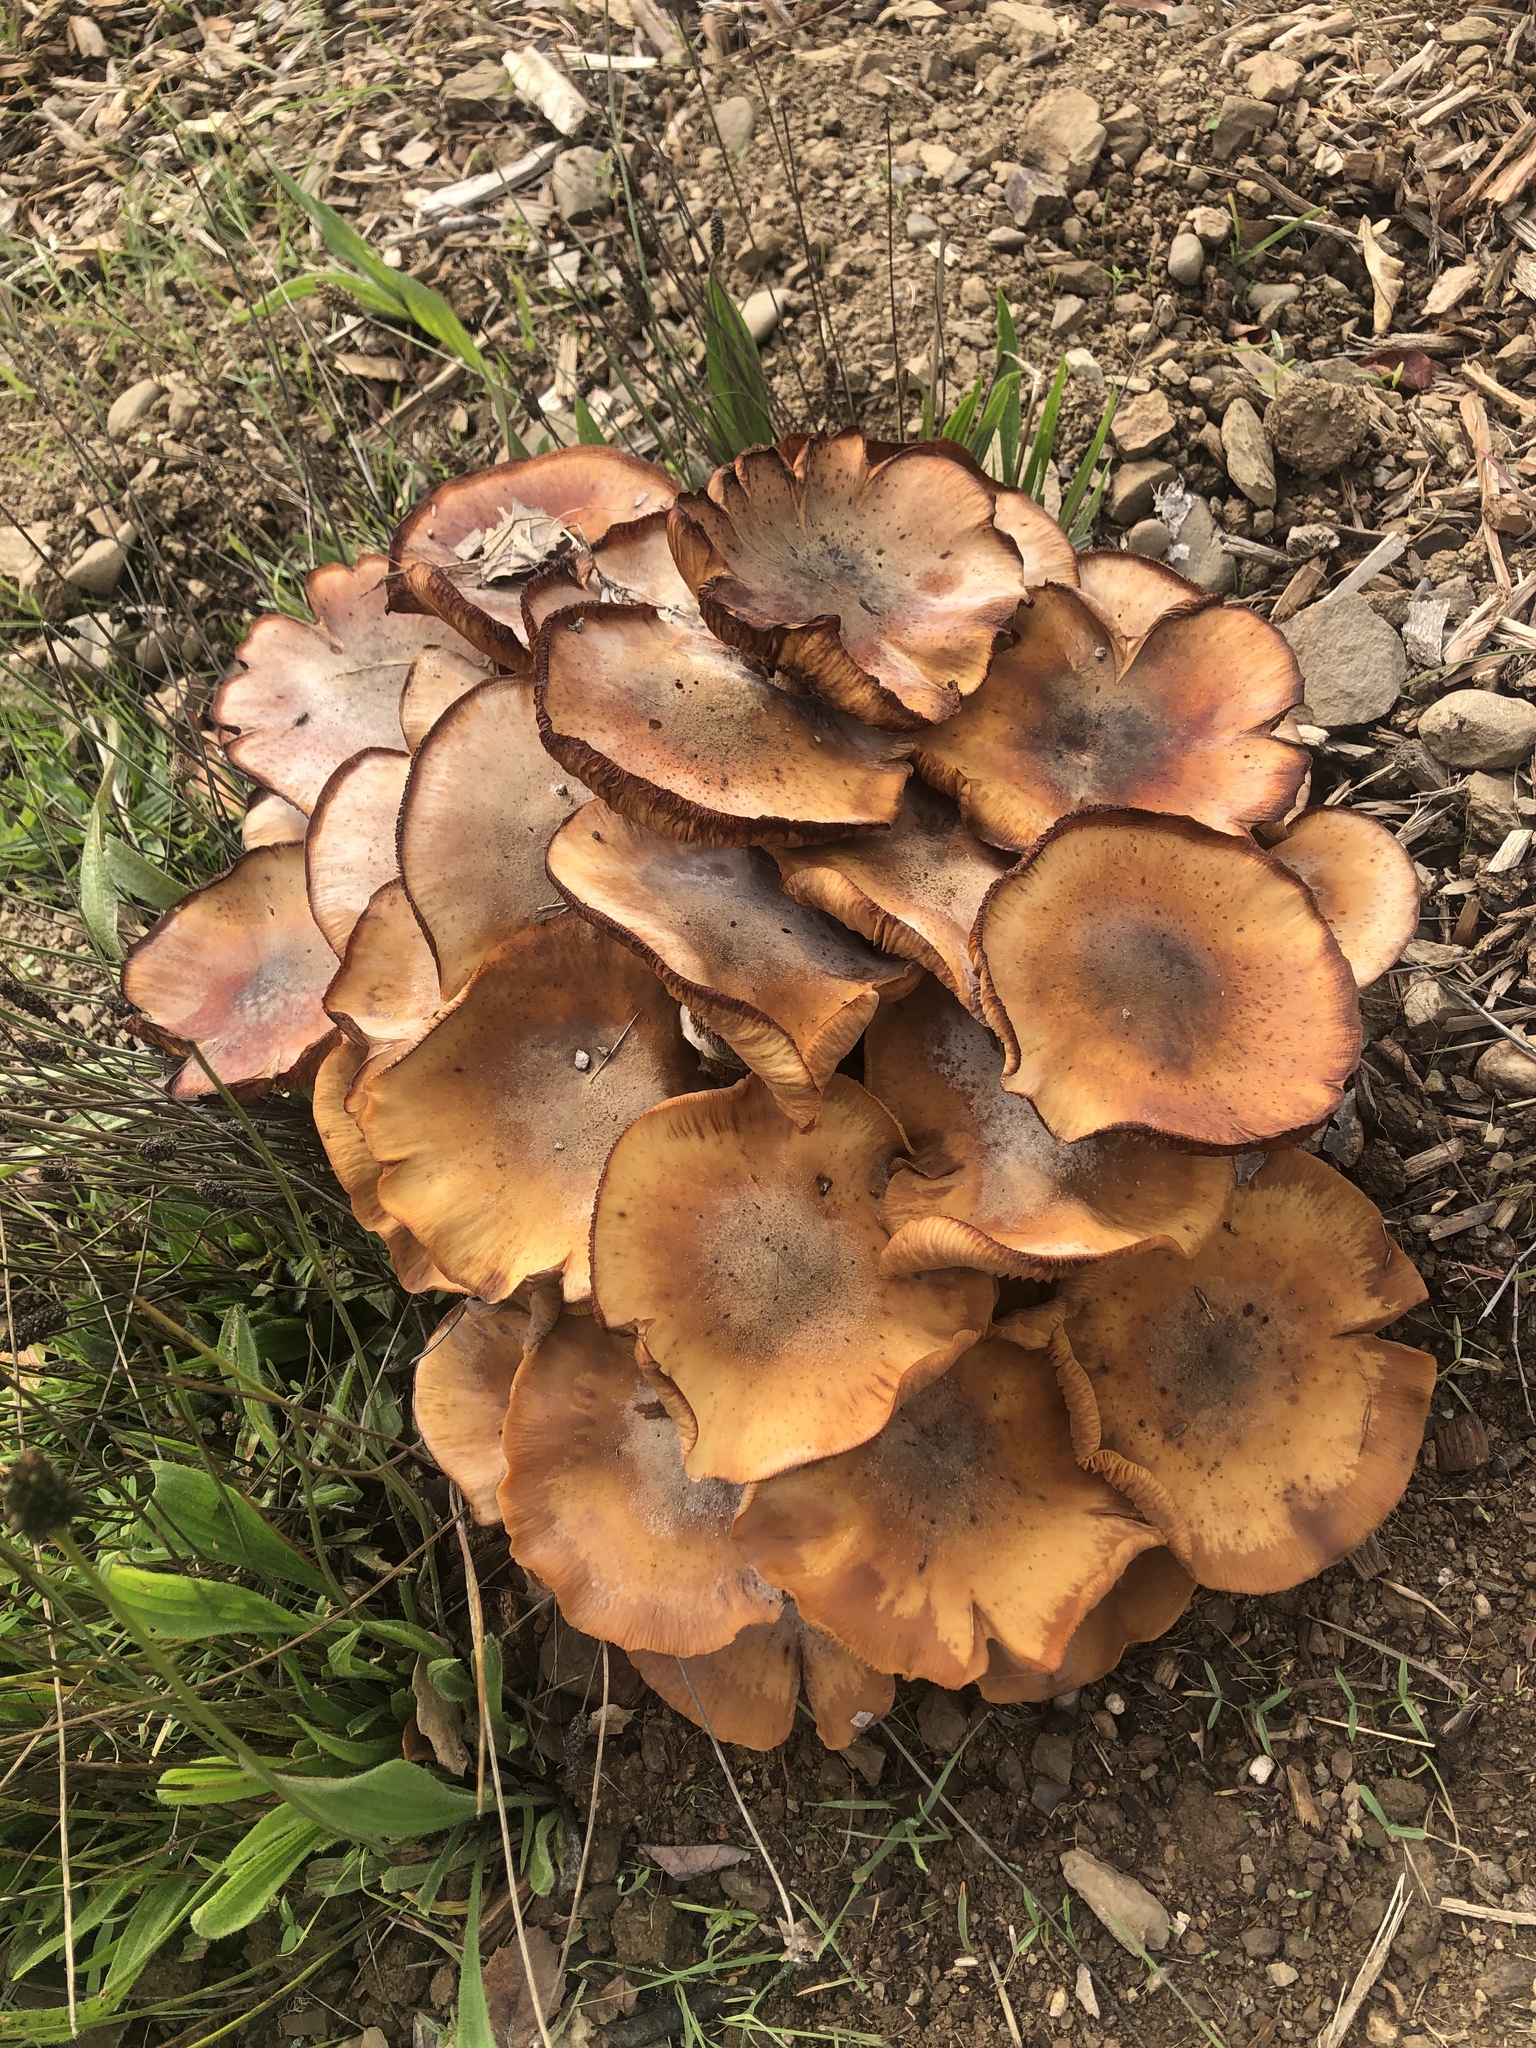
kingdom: Fungi
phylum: Basidiomycota
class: Agaricomycetes
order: Agaricales
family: Physalacriaceae
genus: Armillaria
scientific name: Armillaria mellea
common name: Honey fungus
